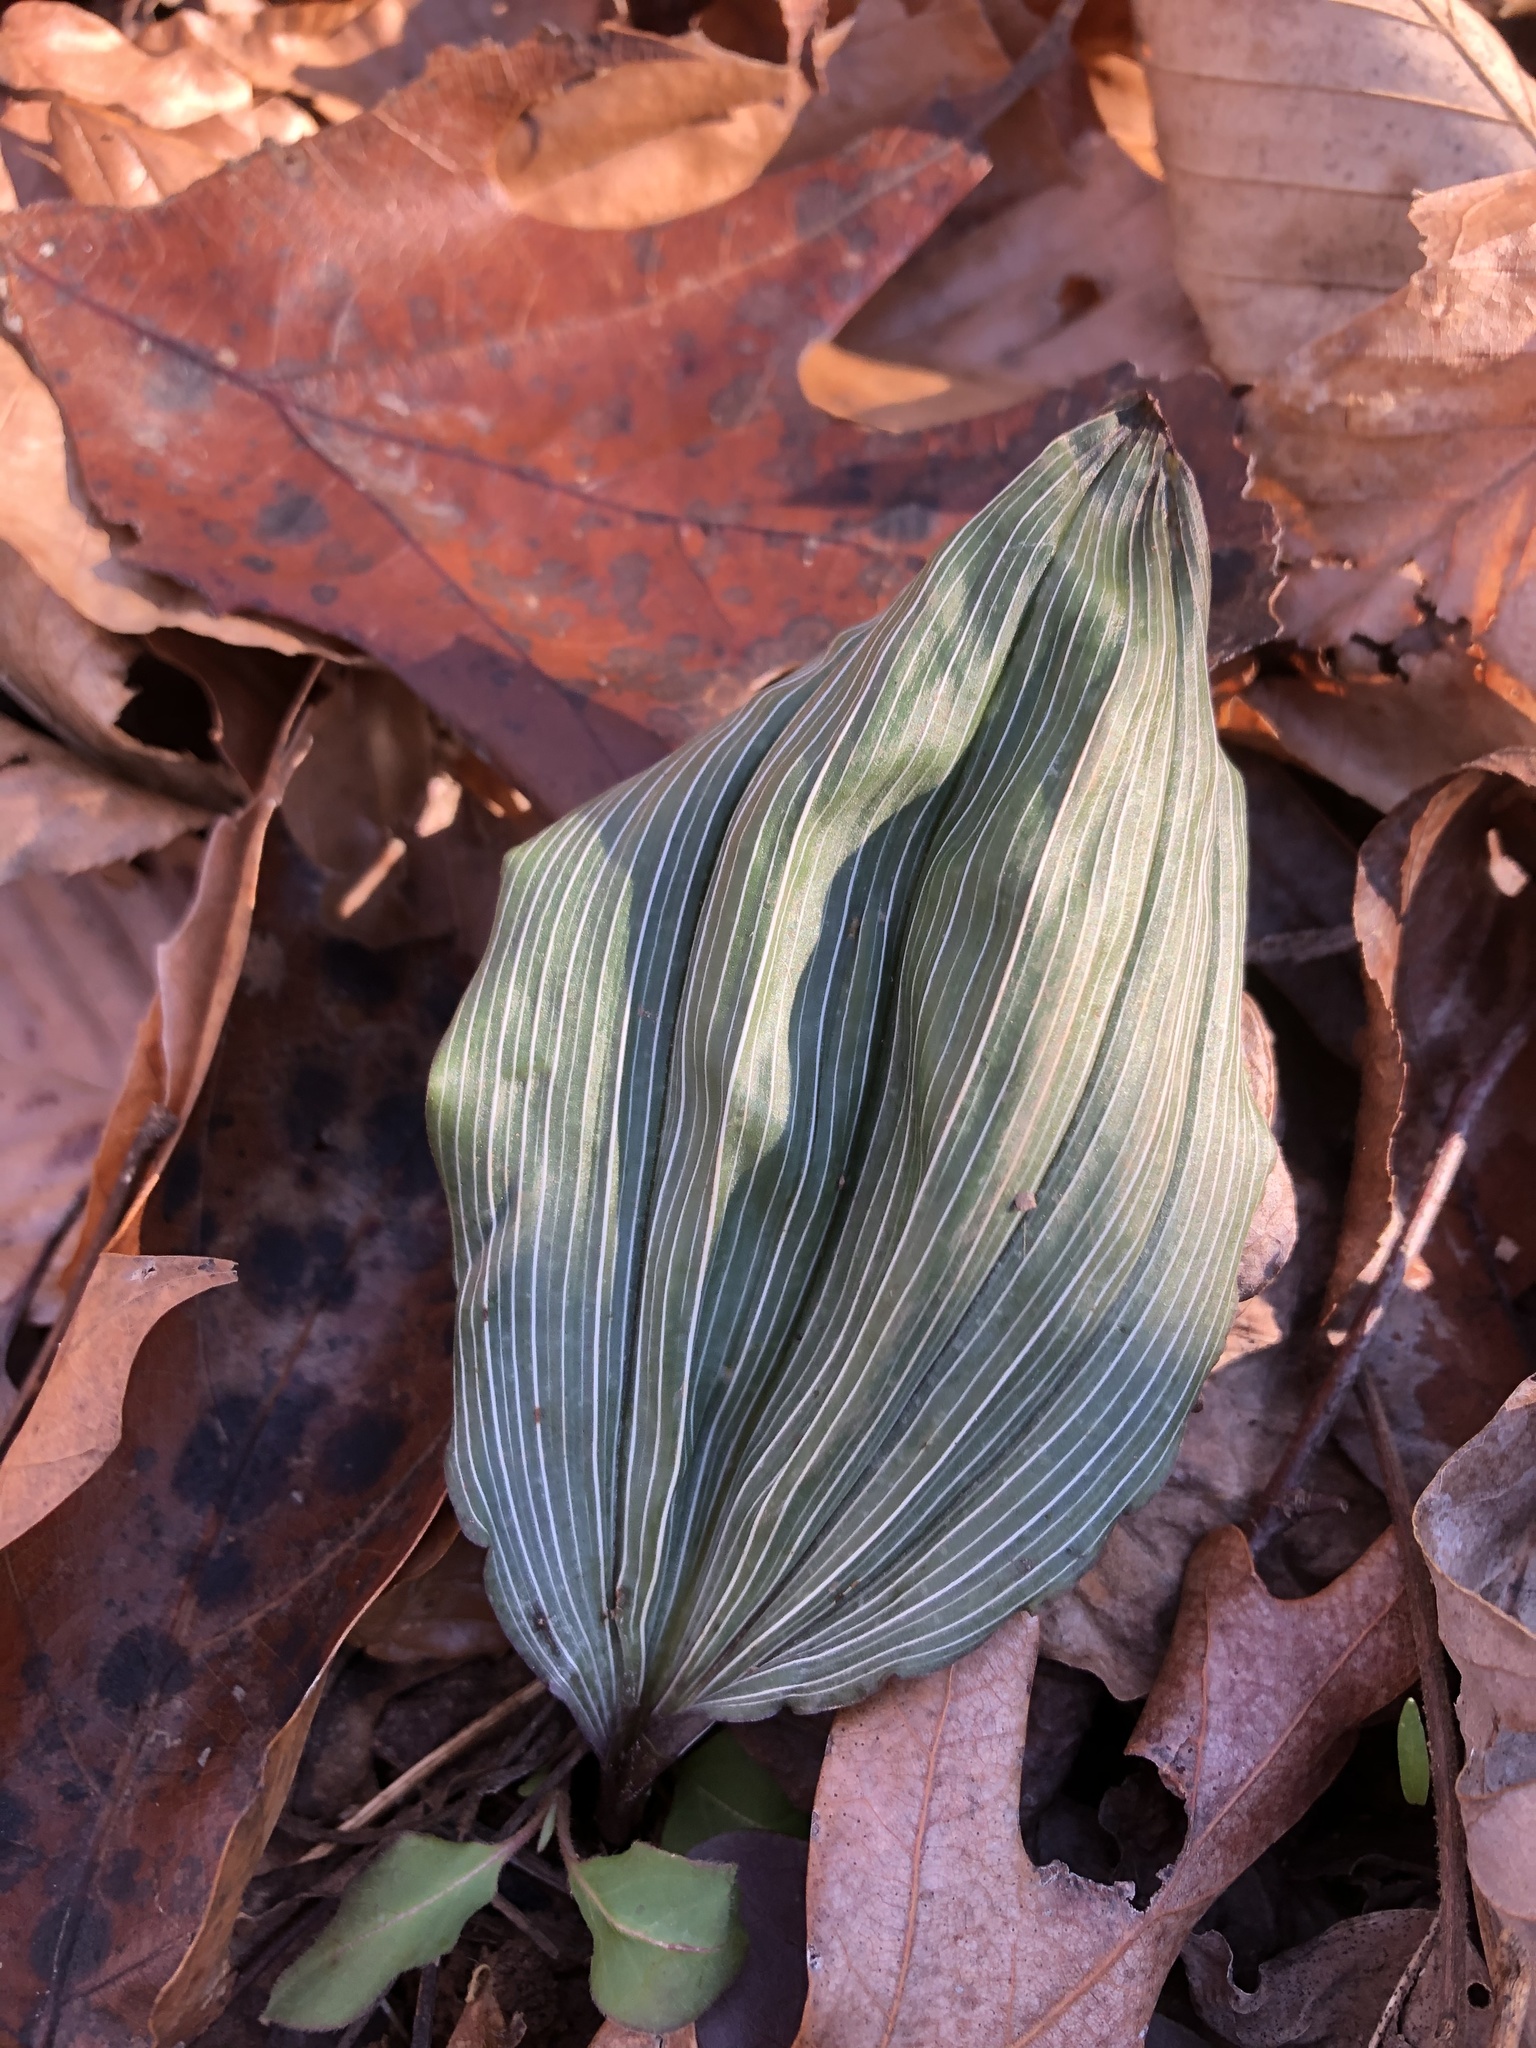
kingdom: Plantae
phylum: Tracheophyta
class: Liliopsida
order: Asparagales
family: Orchidaceae
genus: Aplectrum
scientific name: Aplectrum hyemale
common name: Adam-and-eve
